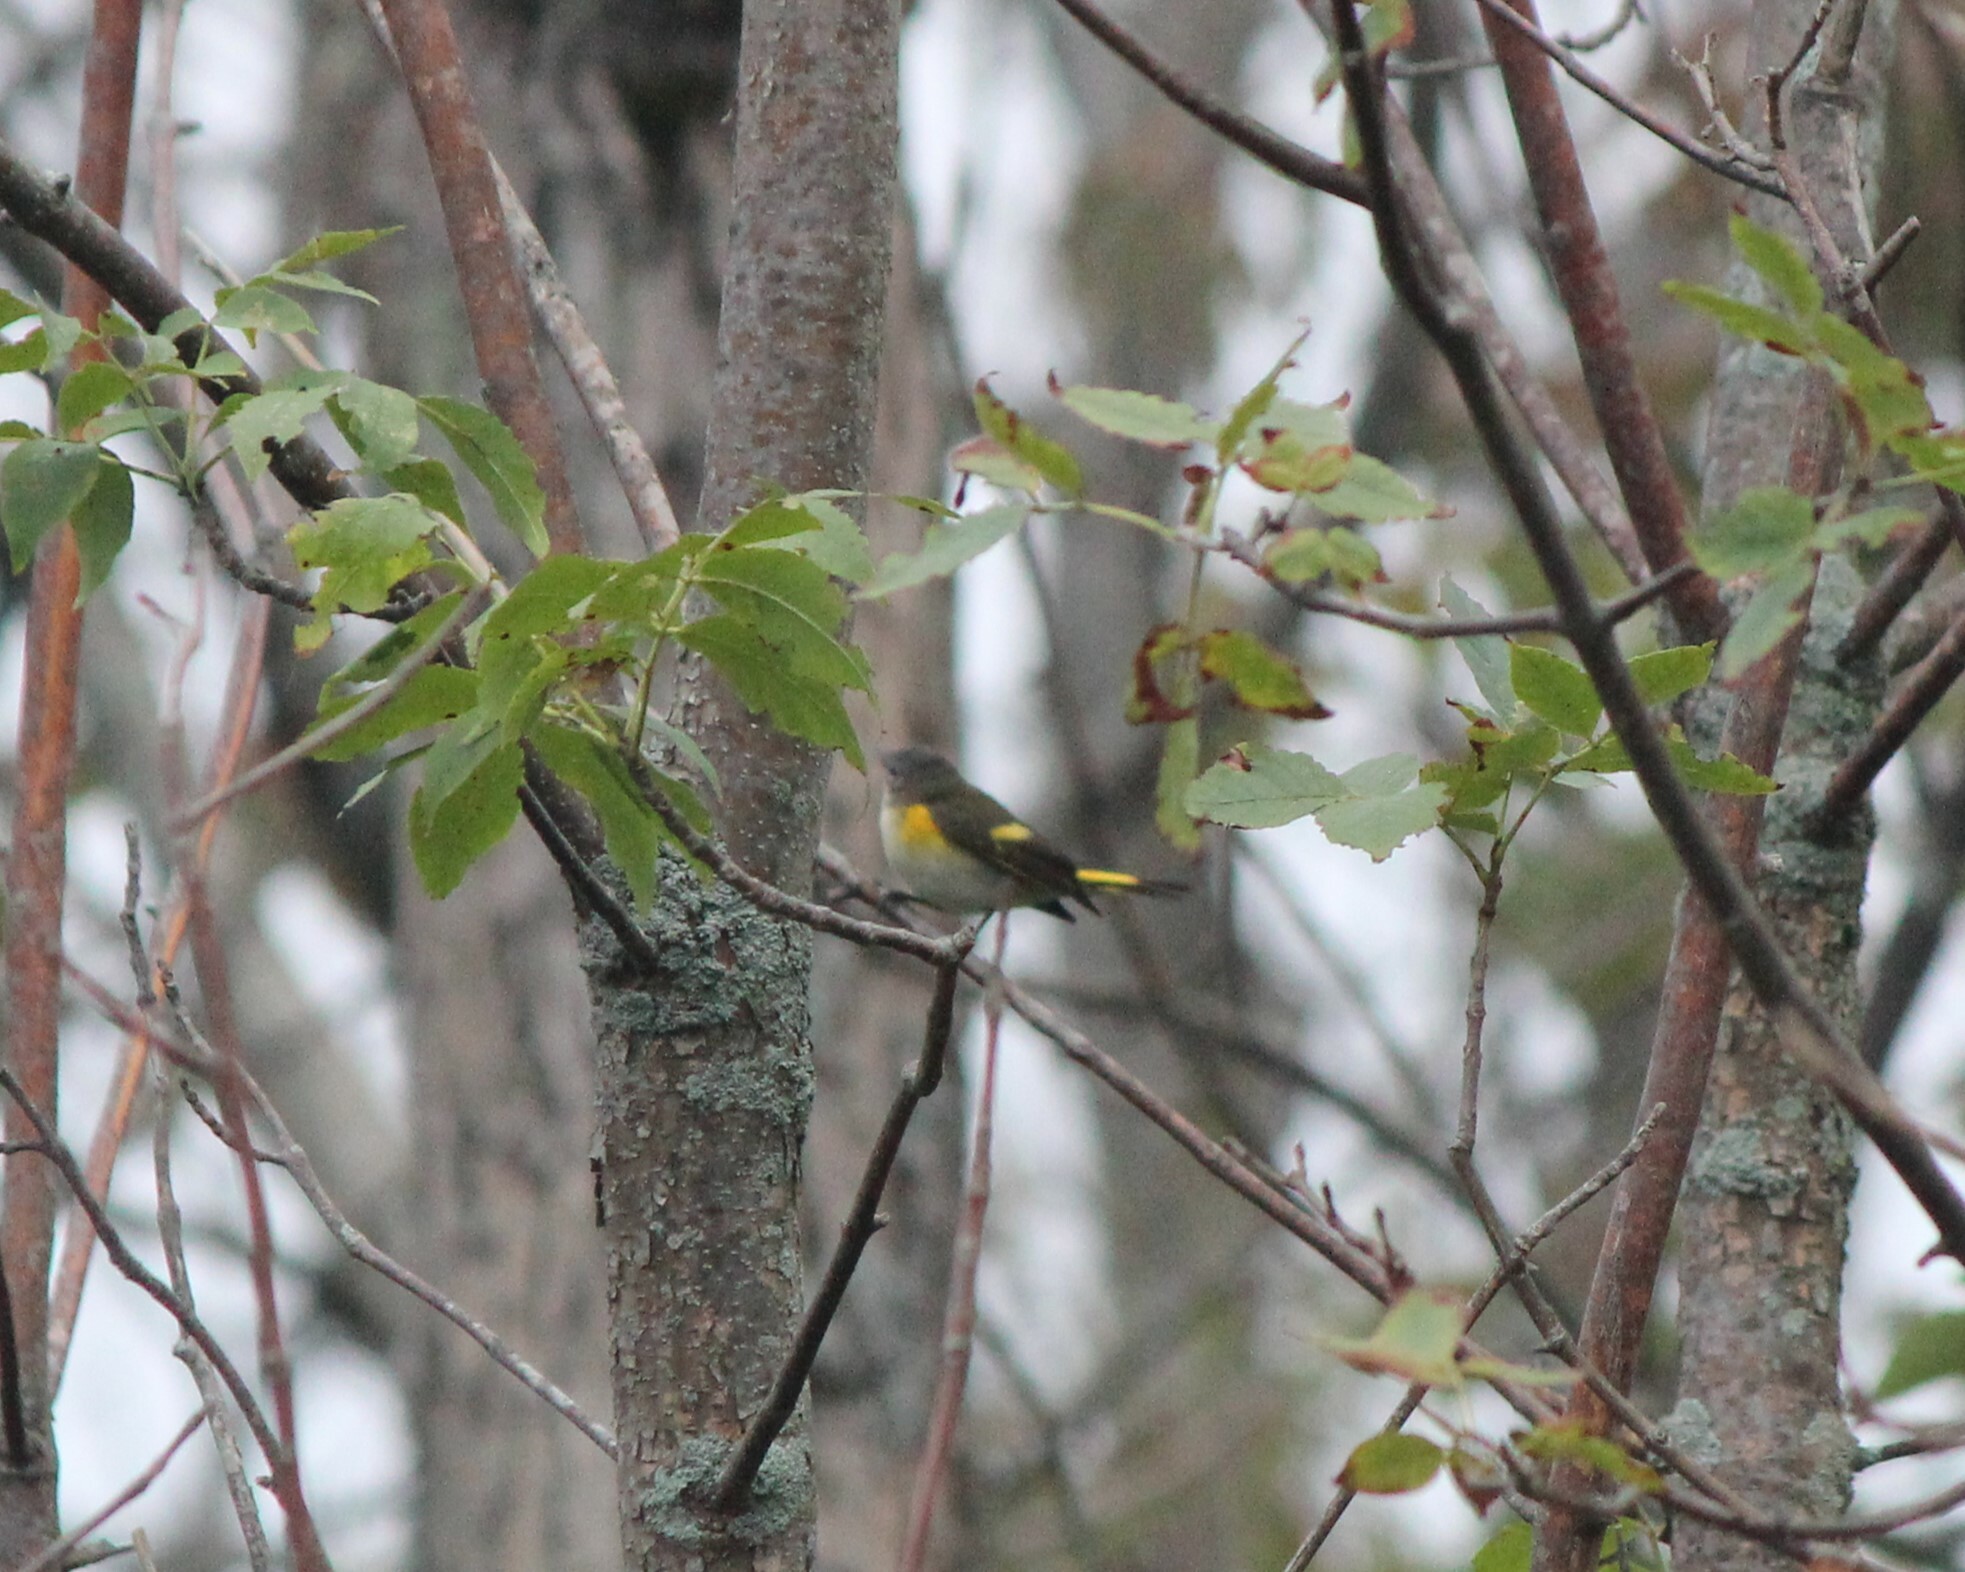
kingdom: Animalia
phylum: Chordata
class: Aves
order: Passeriformes
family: Parulidae
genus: Setophaga
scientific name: Setophaga ruticilla
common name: American redstart
